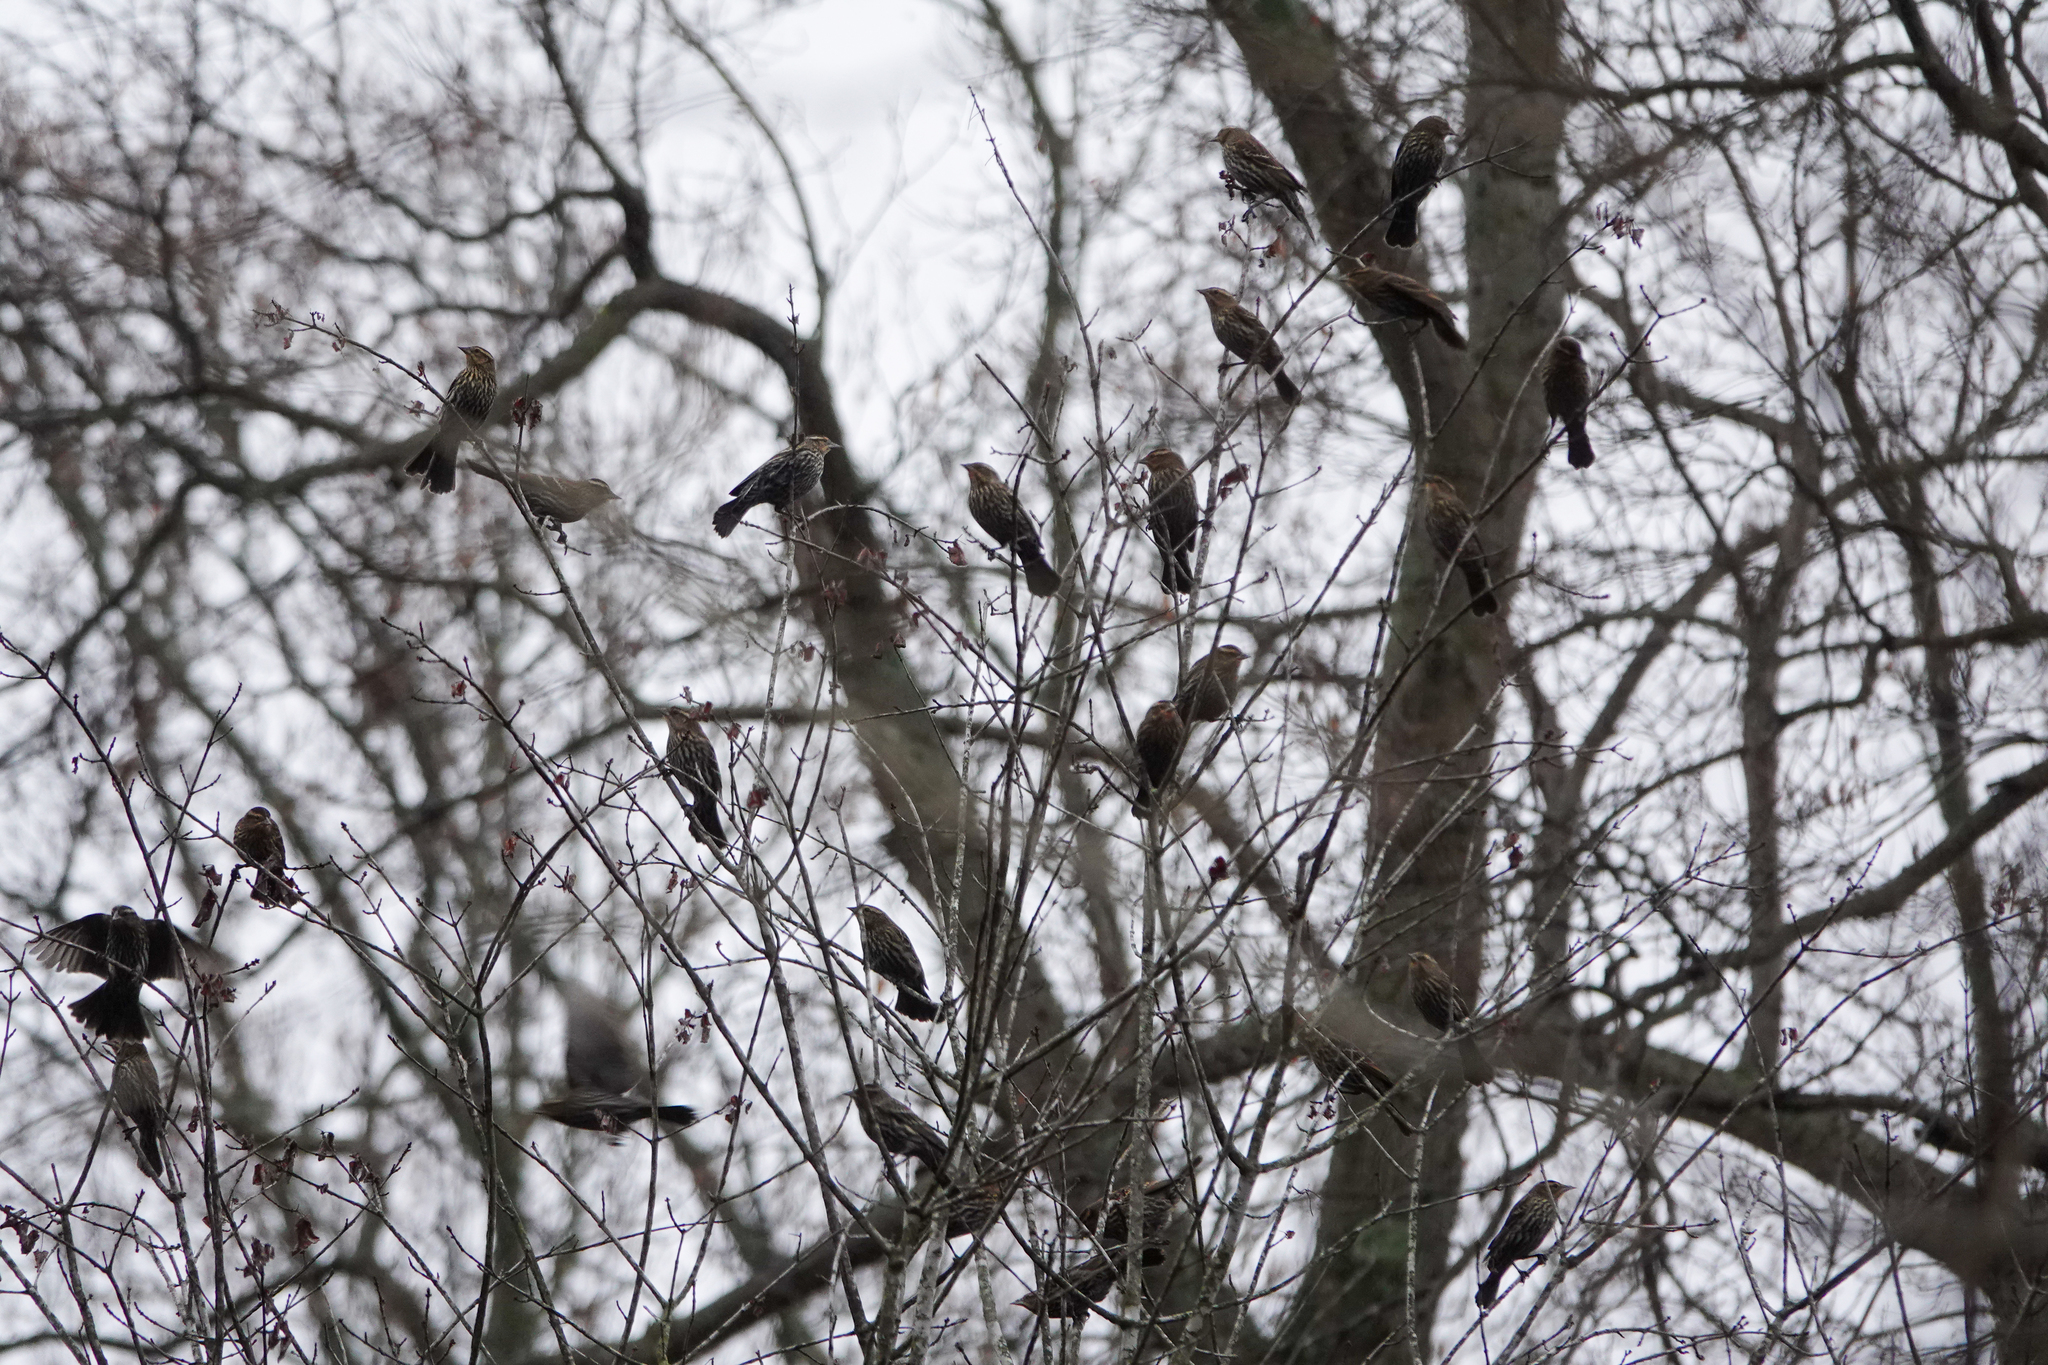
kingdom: Animalia
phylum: Chordata
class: Aves
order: Passeriformes
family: Icteridae
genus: Agelaius
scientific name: Agelaius phoeniceus
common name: Red-winged blackbird
